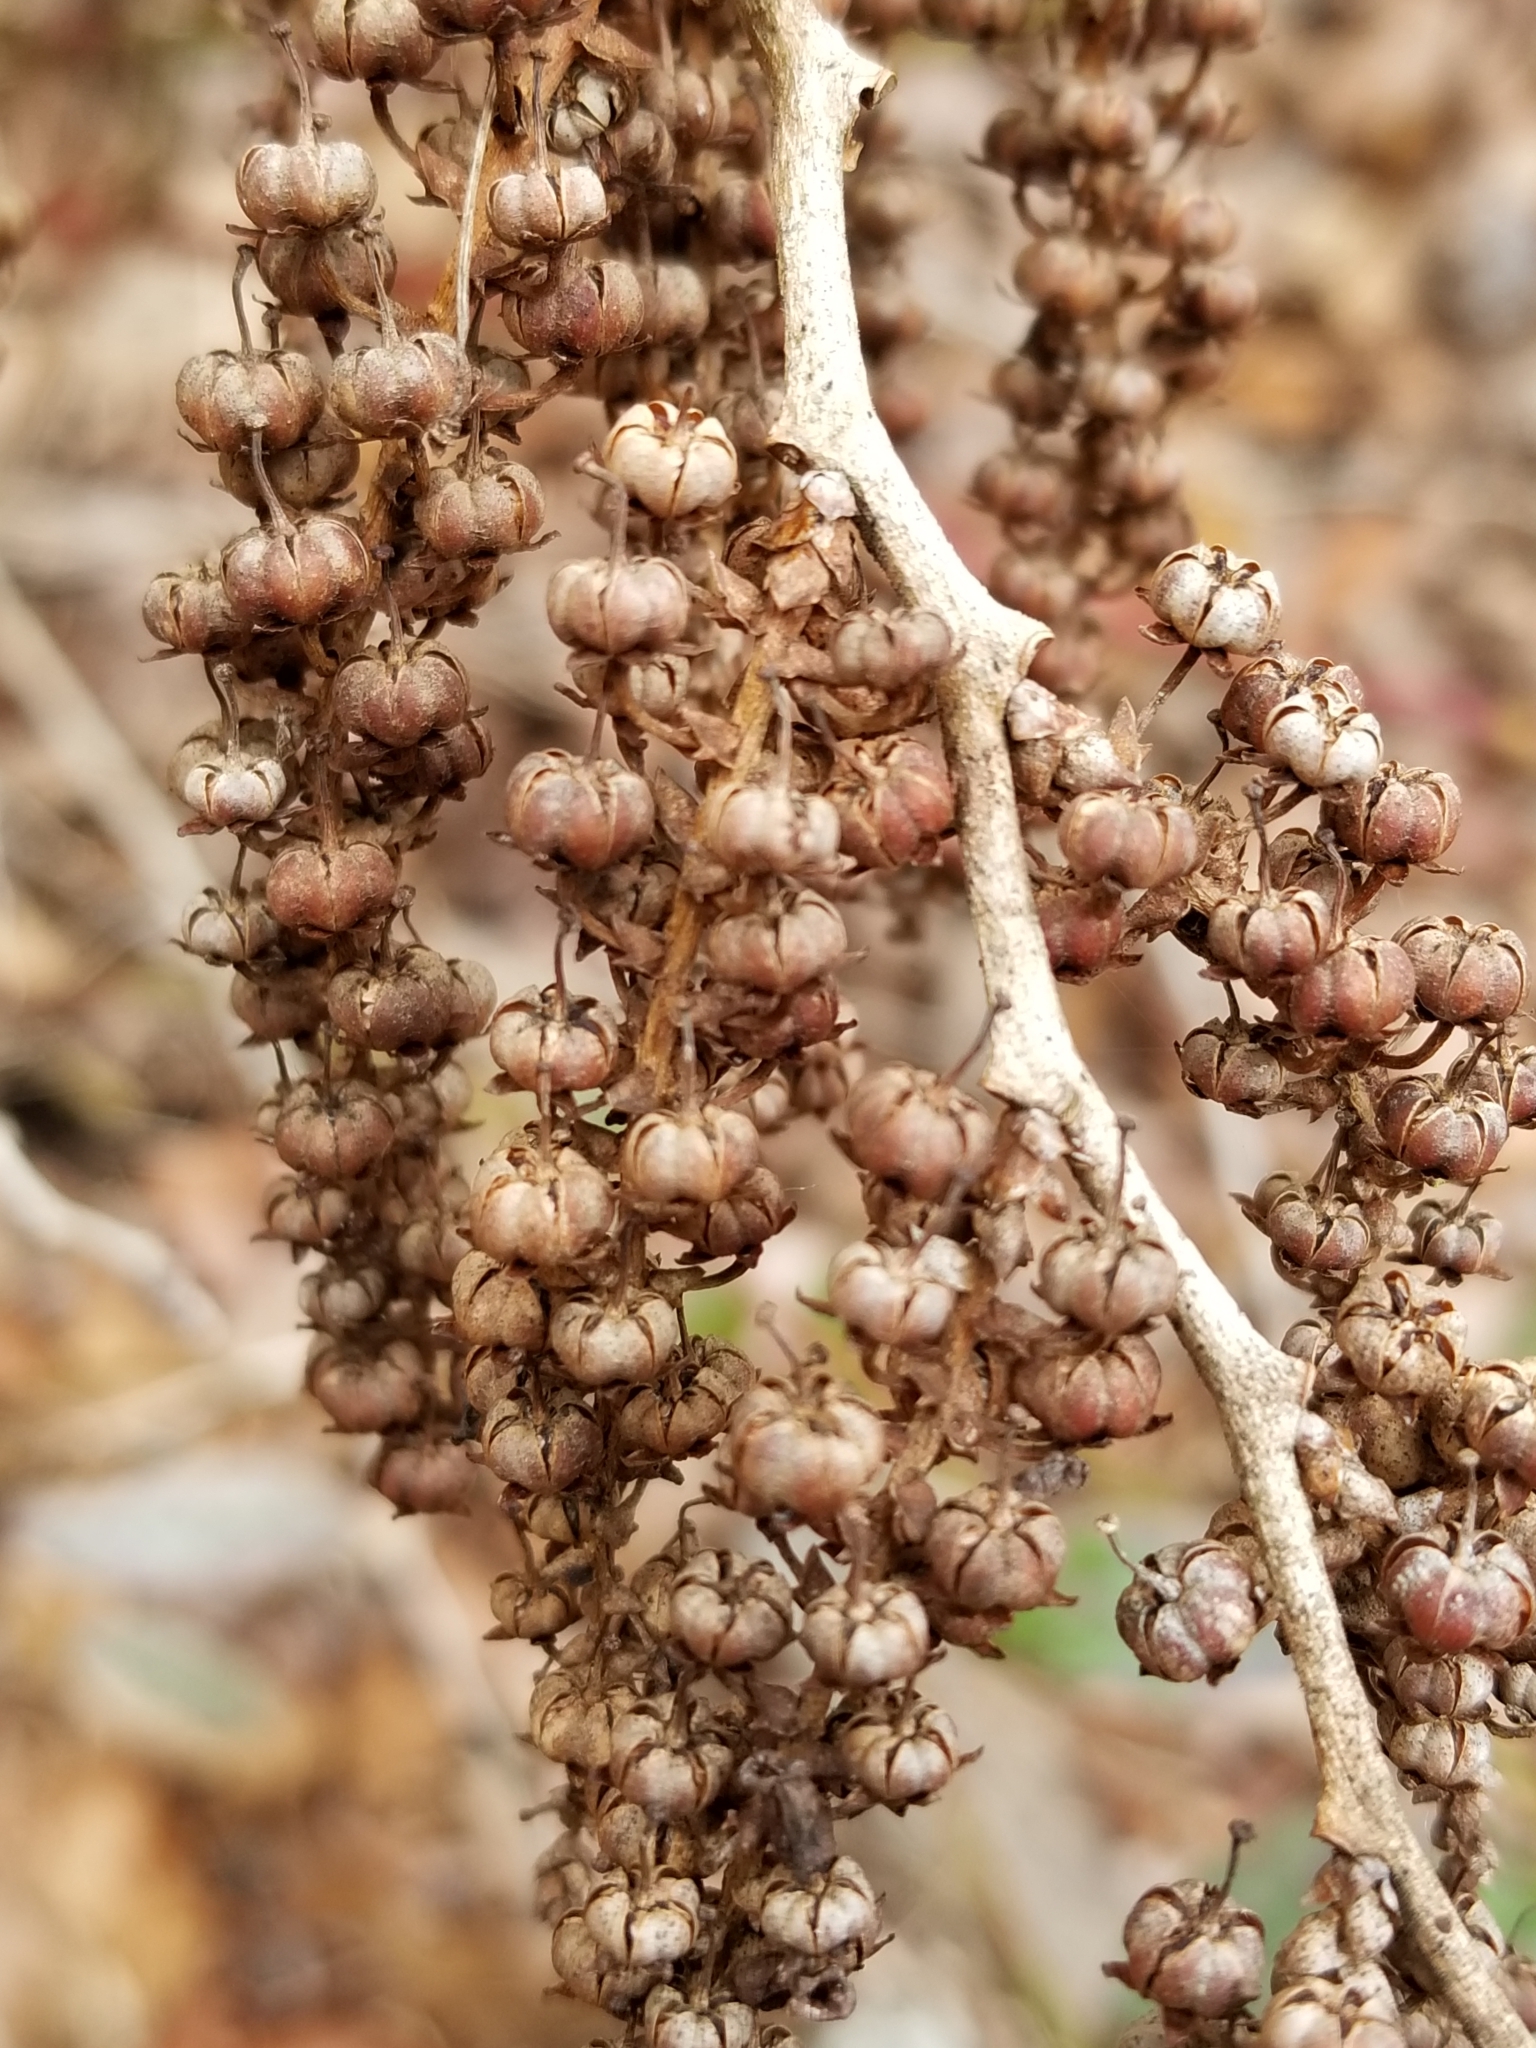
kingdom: Plantae
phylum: Tracheophyta
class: Magnoliopsida
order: Ericales
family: Ericaceae
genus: Leucothoe
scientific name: Leucothoe fontanesiana
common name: Fetterbush
